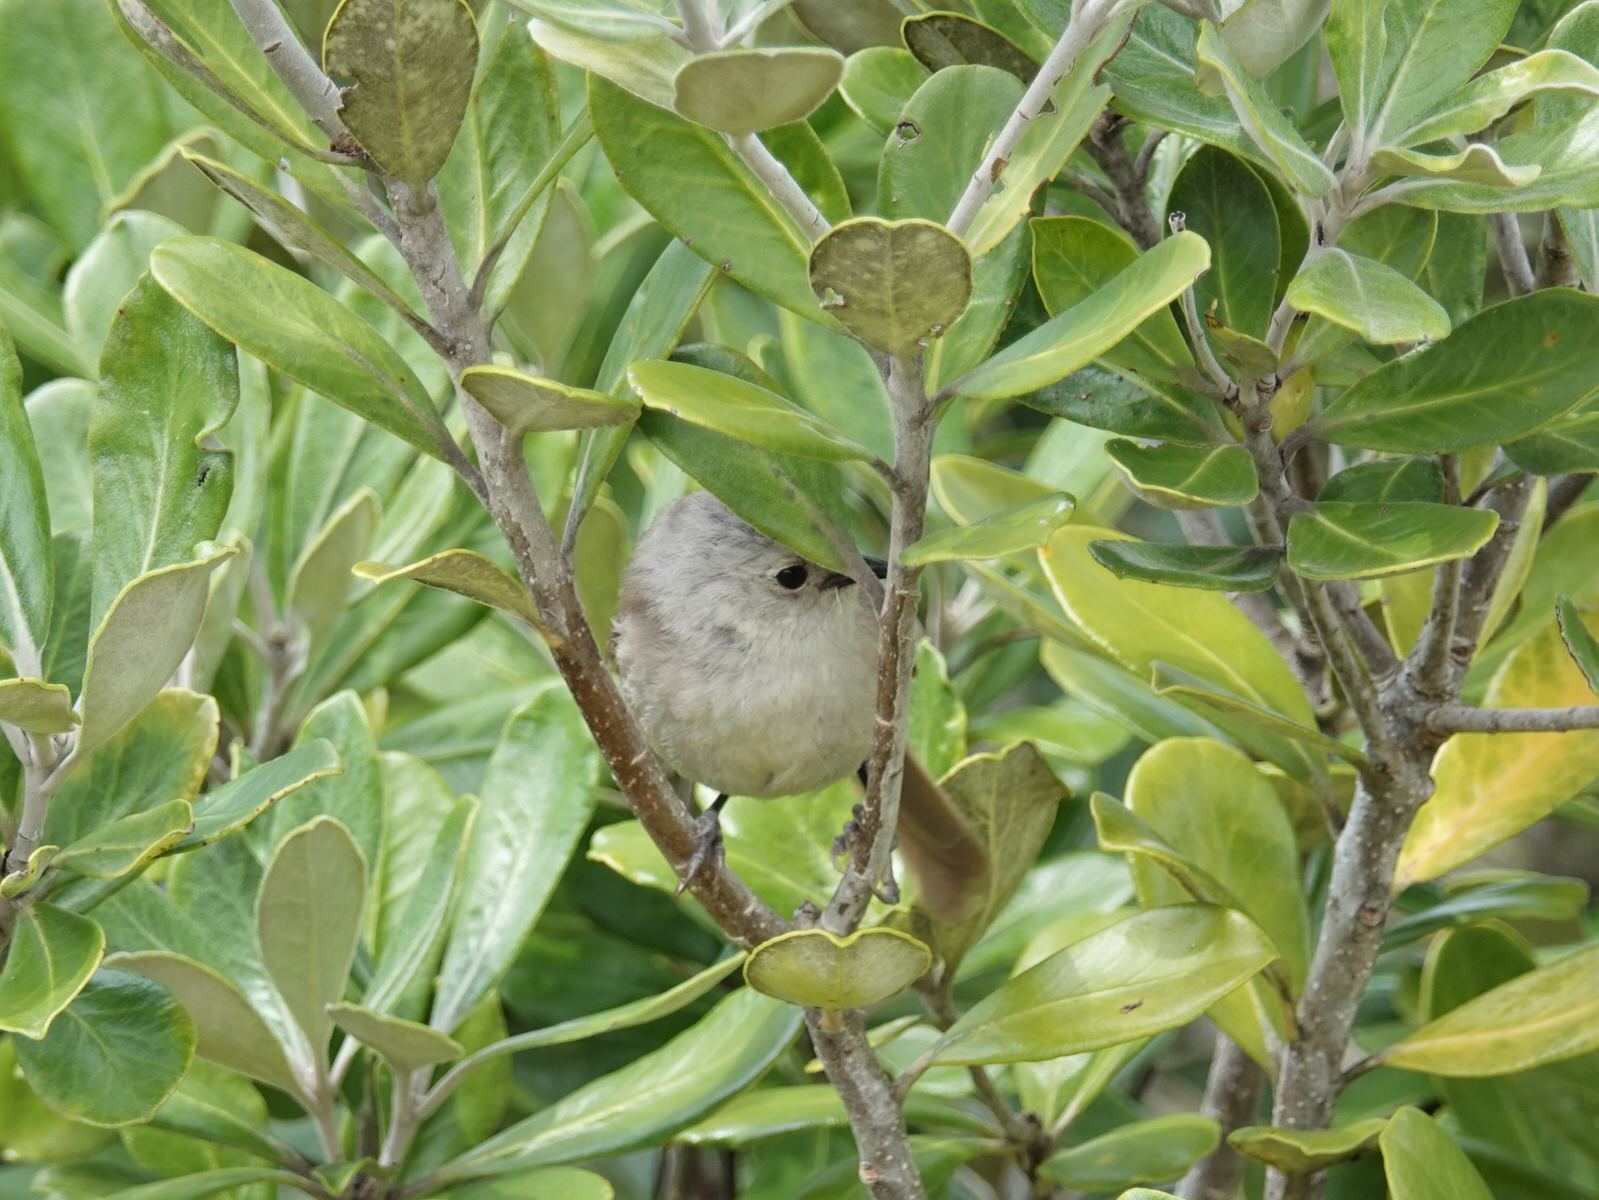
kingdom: Animalia
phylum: Chordata
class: Aves
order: Passeriformes
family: Acanthizidae
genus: Mohoua
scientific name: Mohoua albicilla
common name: Whitehead
